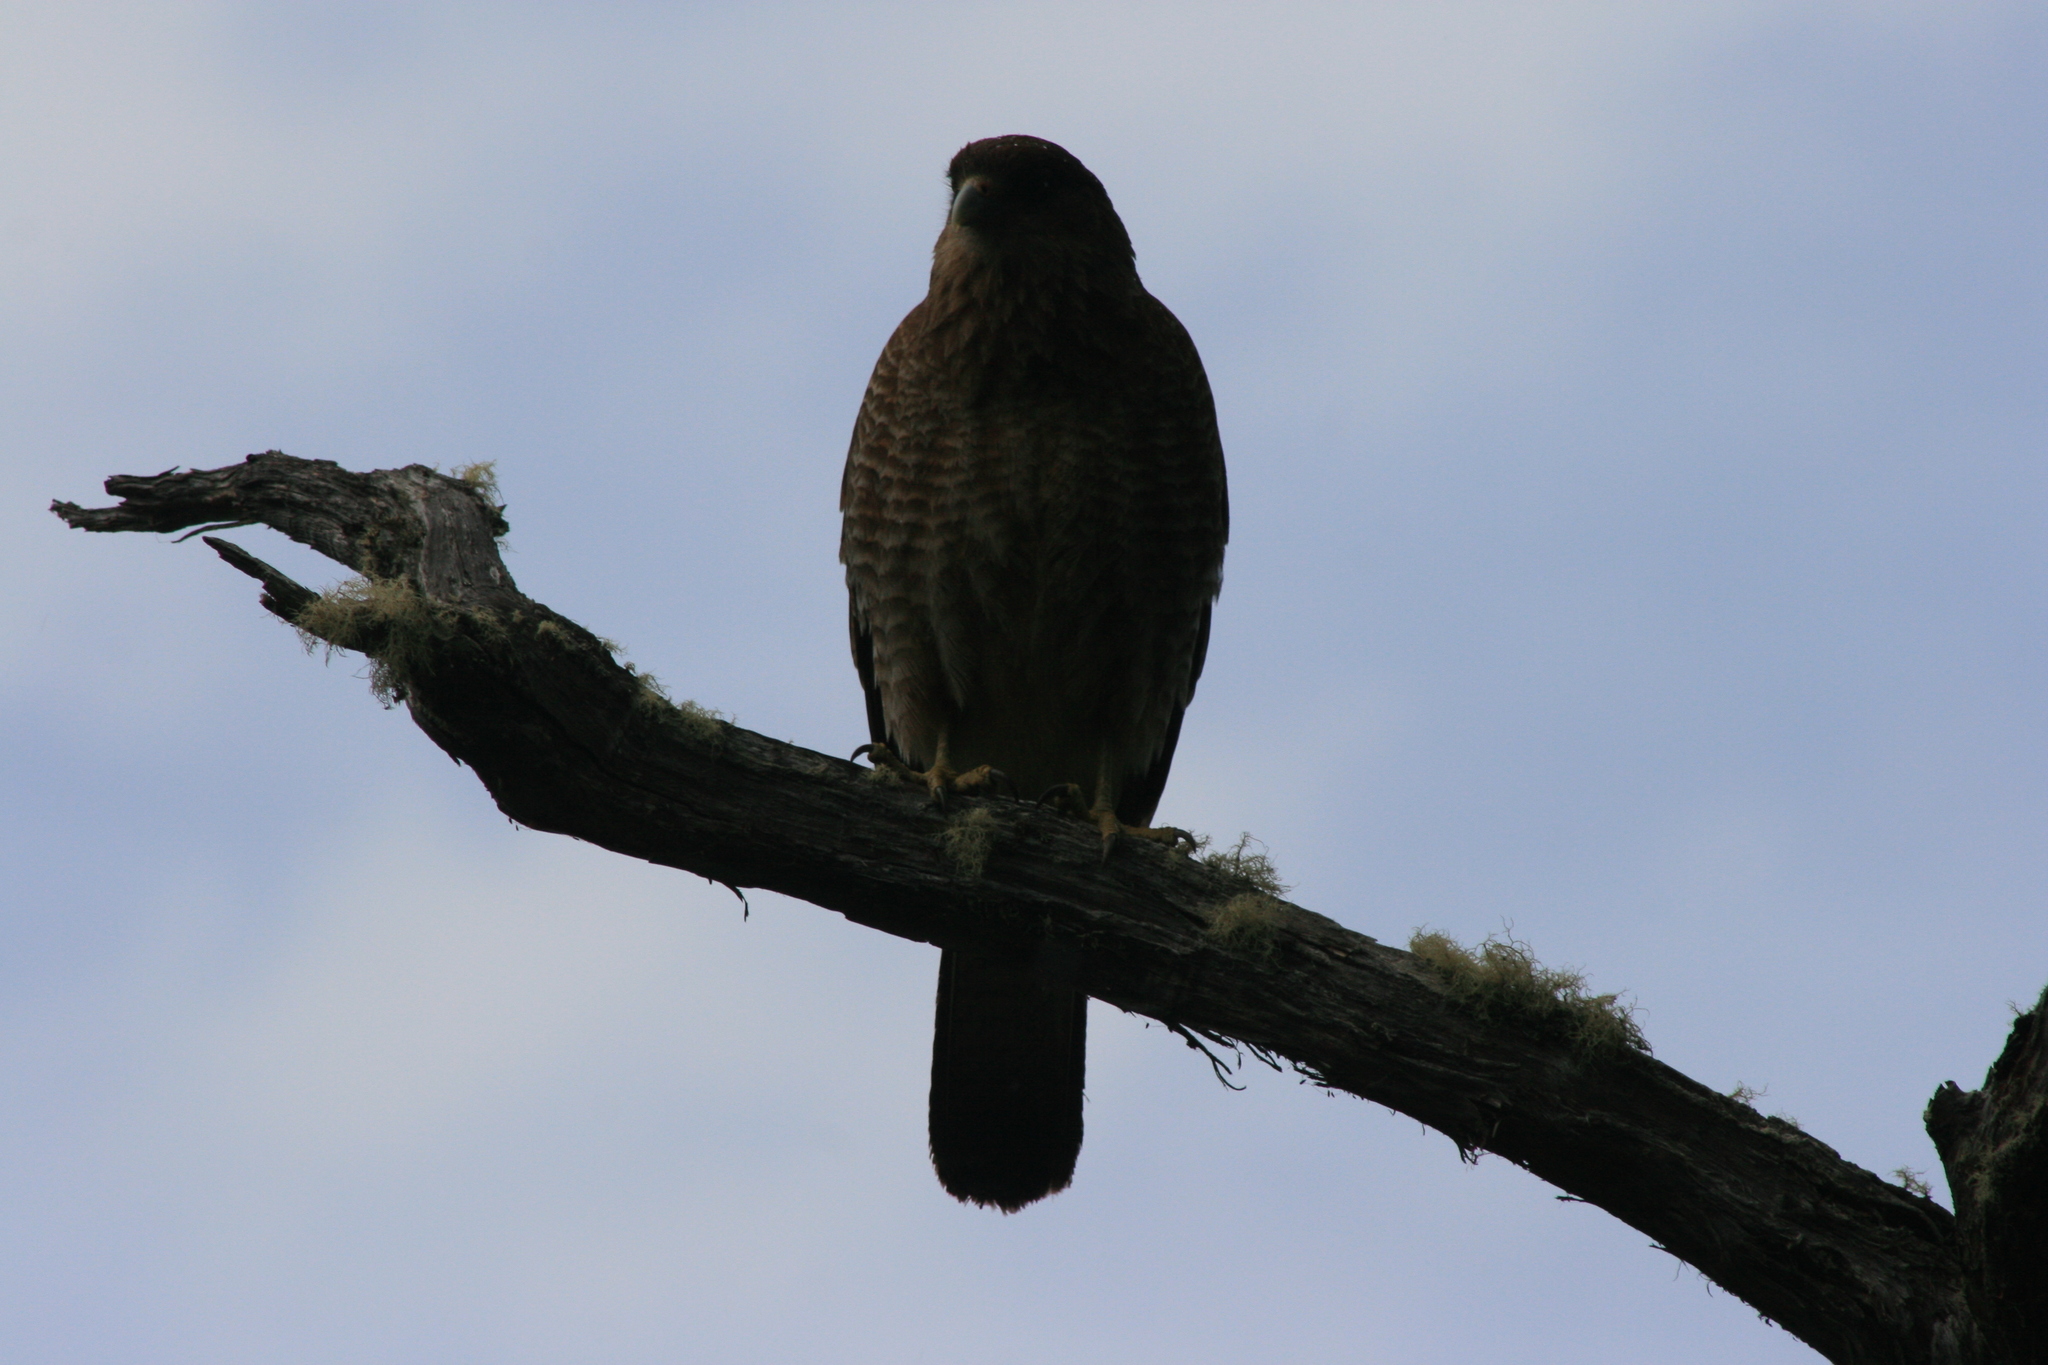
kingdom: Animalia
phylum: Chordata
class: Aves
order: Falconiformes
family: Falconidae
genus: Daptrius
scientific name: Daptrius
